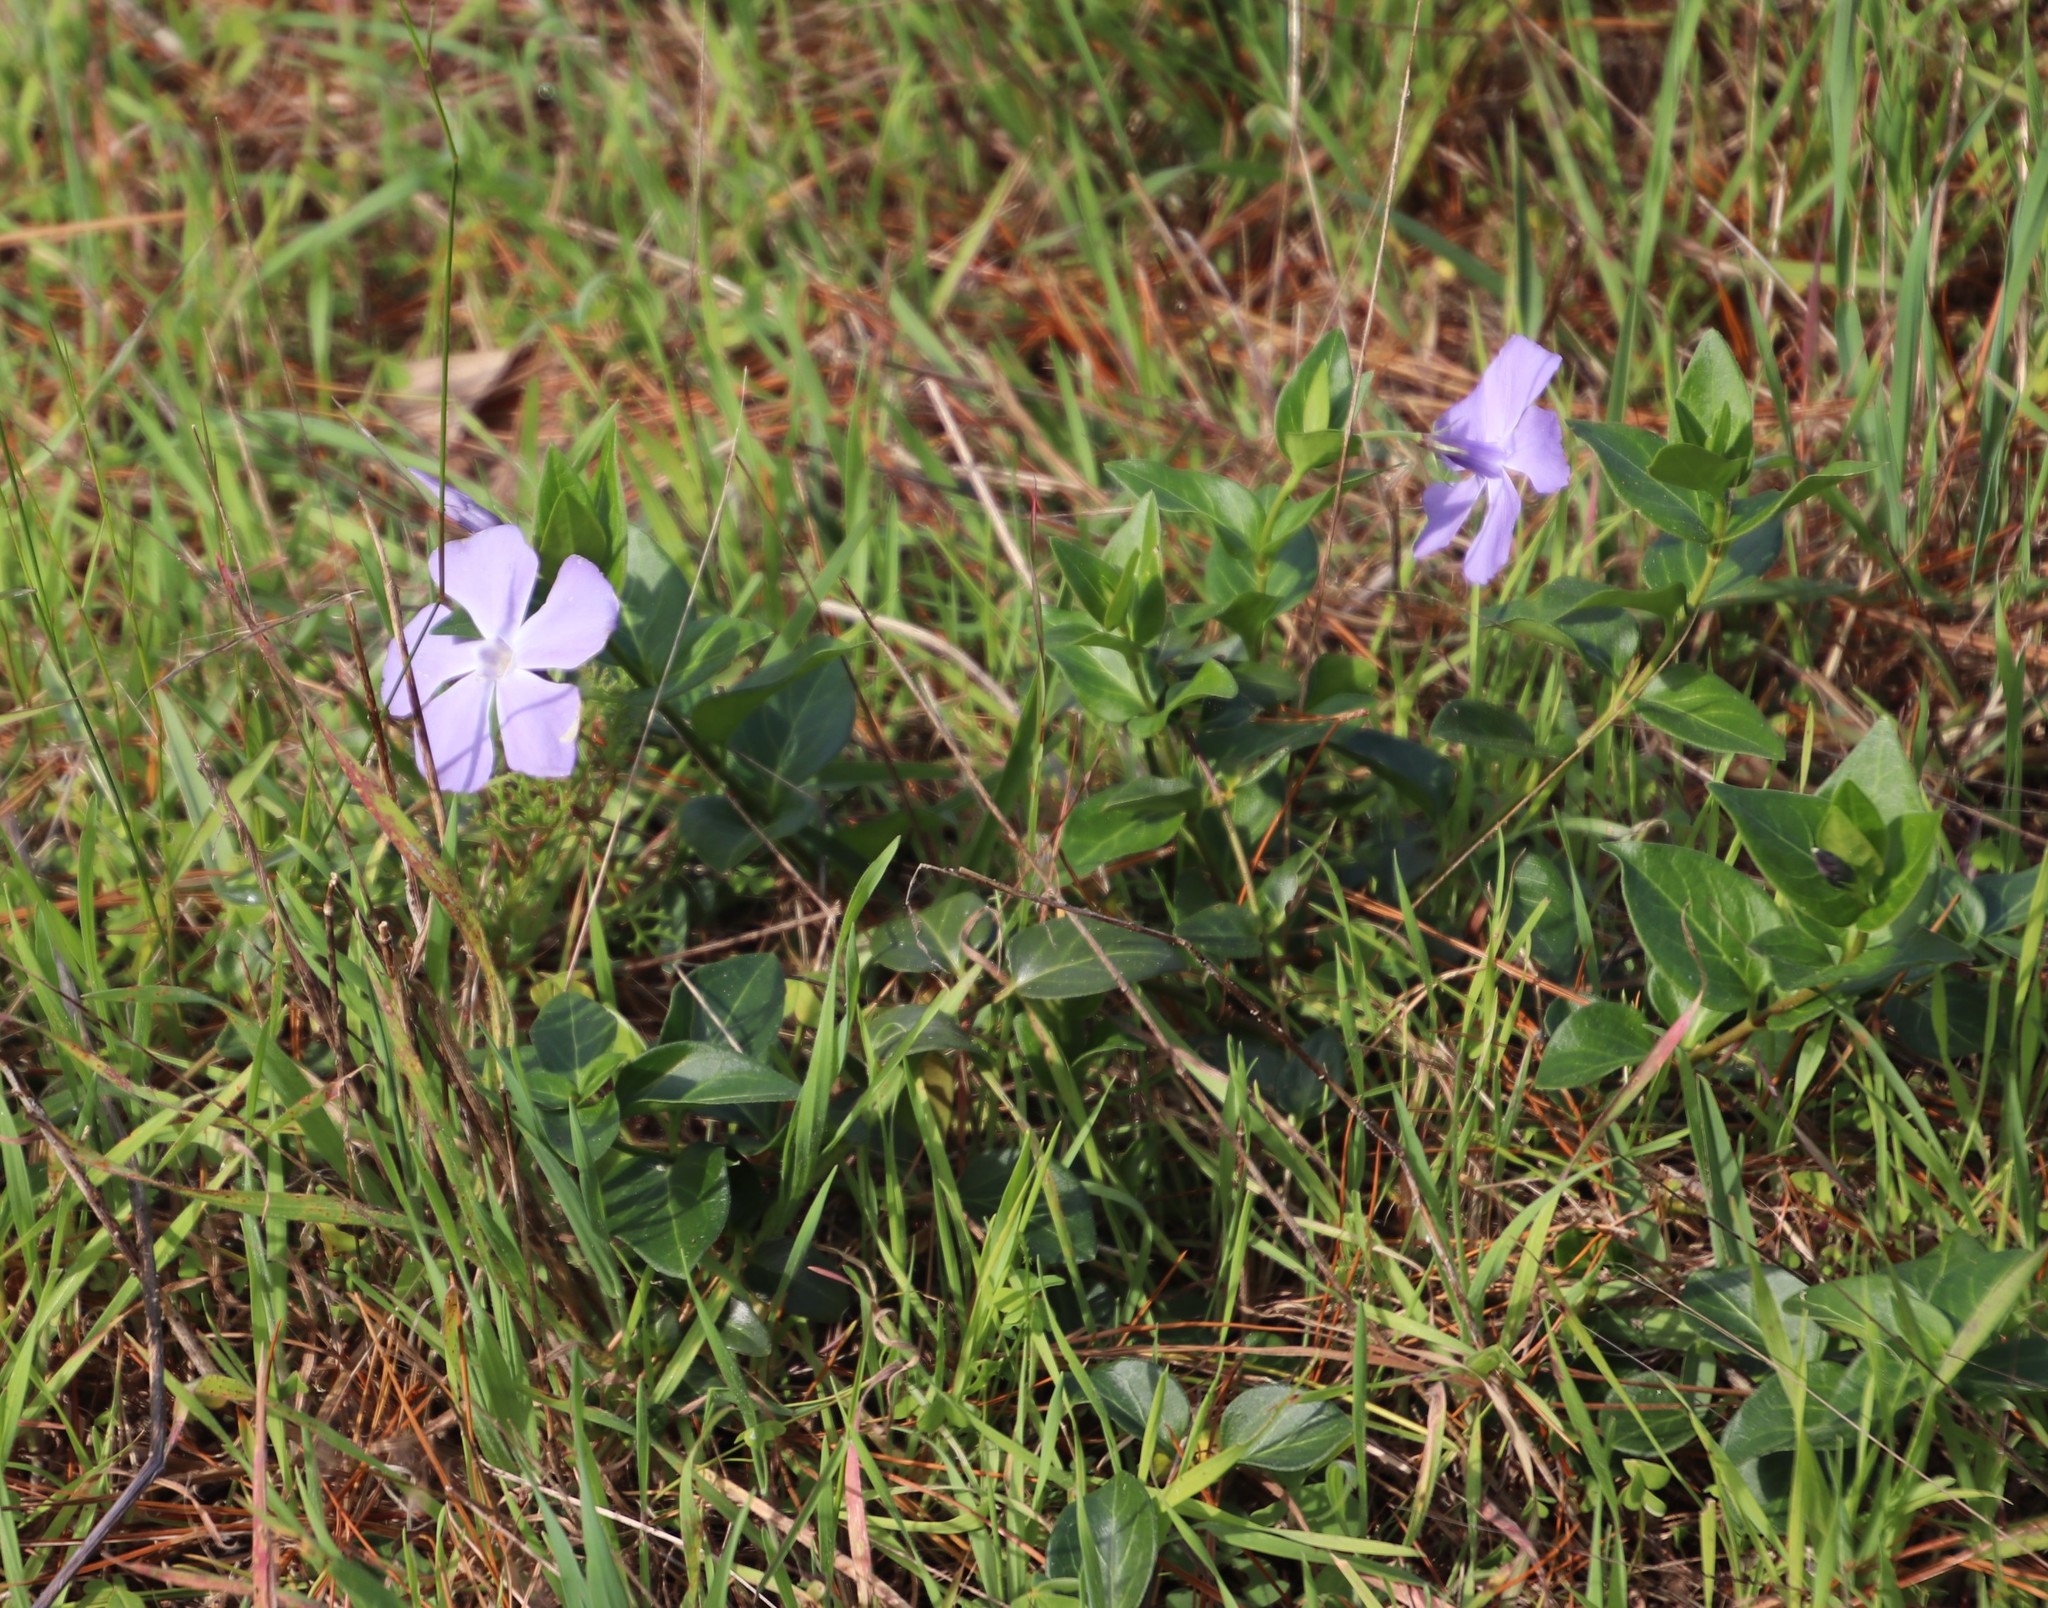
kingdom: Plantae
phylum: Tracheophyta
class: Magnoliopsida
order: Gentianales
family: Apocynaceae
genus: Vinca
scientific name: Vinca major
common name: Greater periwinkle
